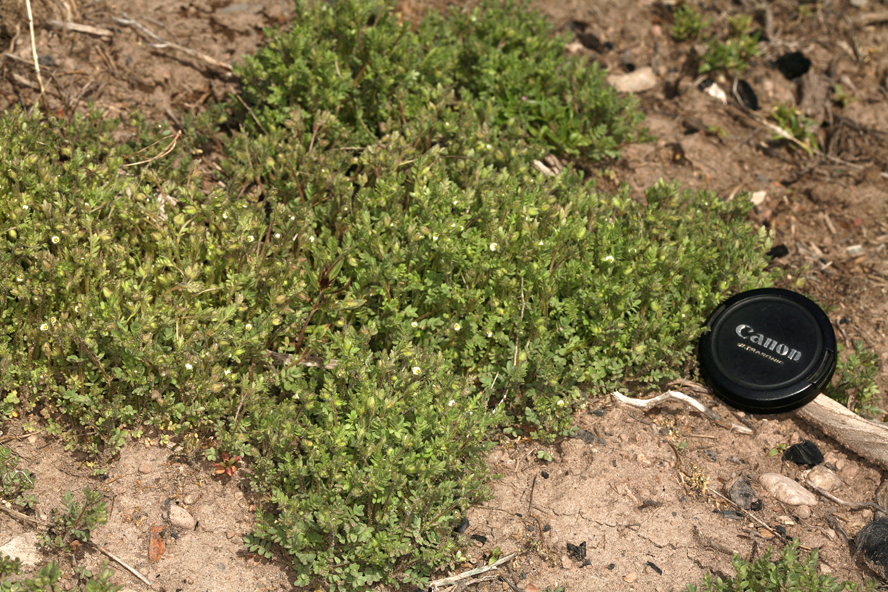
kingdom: Plantae
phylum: Tracheophyta
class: Magnoliopsida
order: Ericales
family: Polemoniaceae
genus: Polemonium
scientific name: Polemonium micranthum
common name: Annual jacob's-ladder
